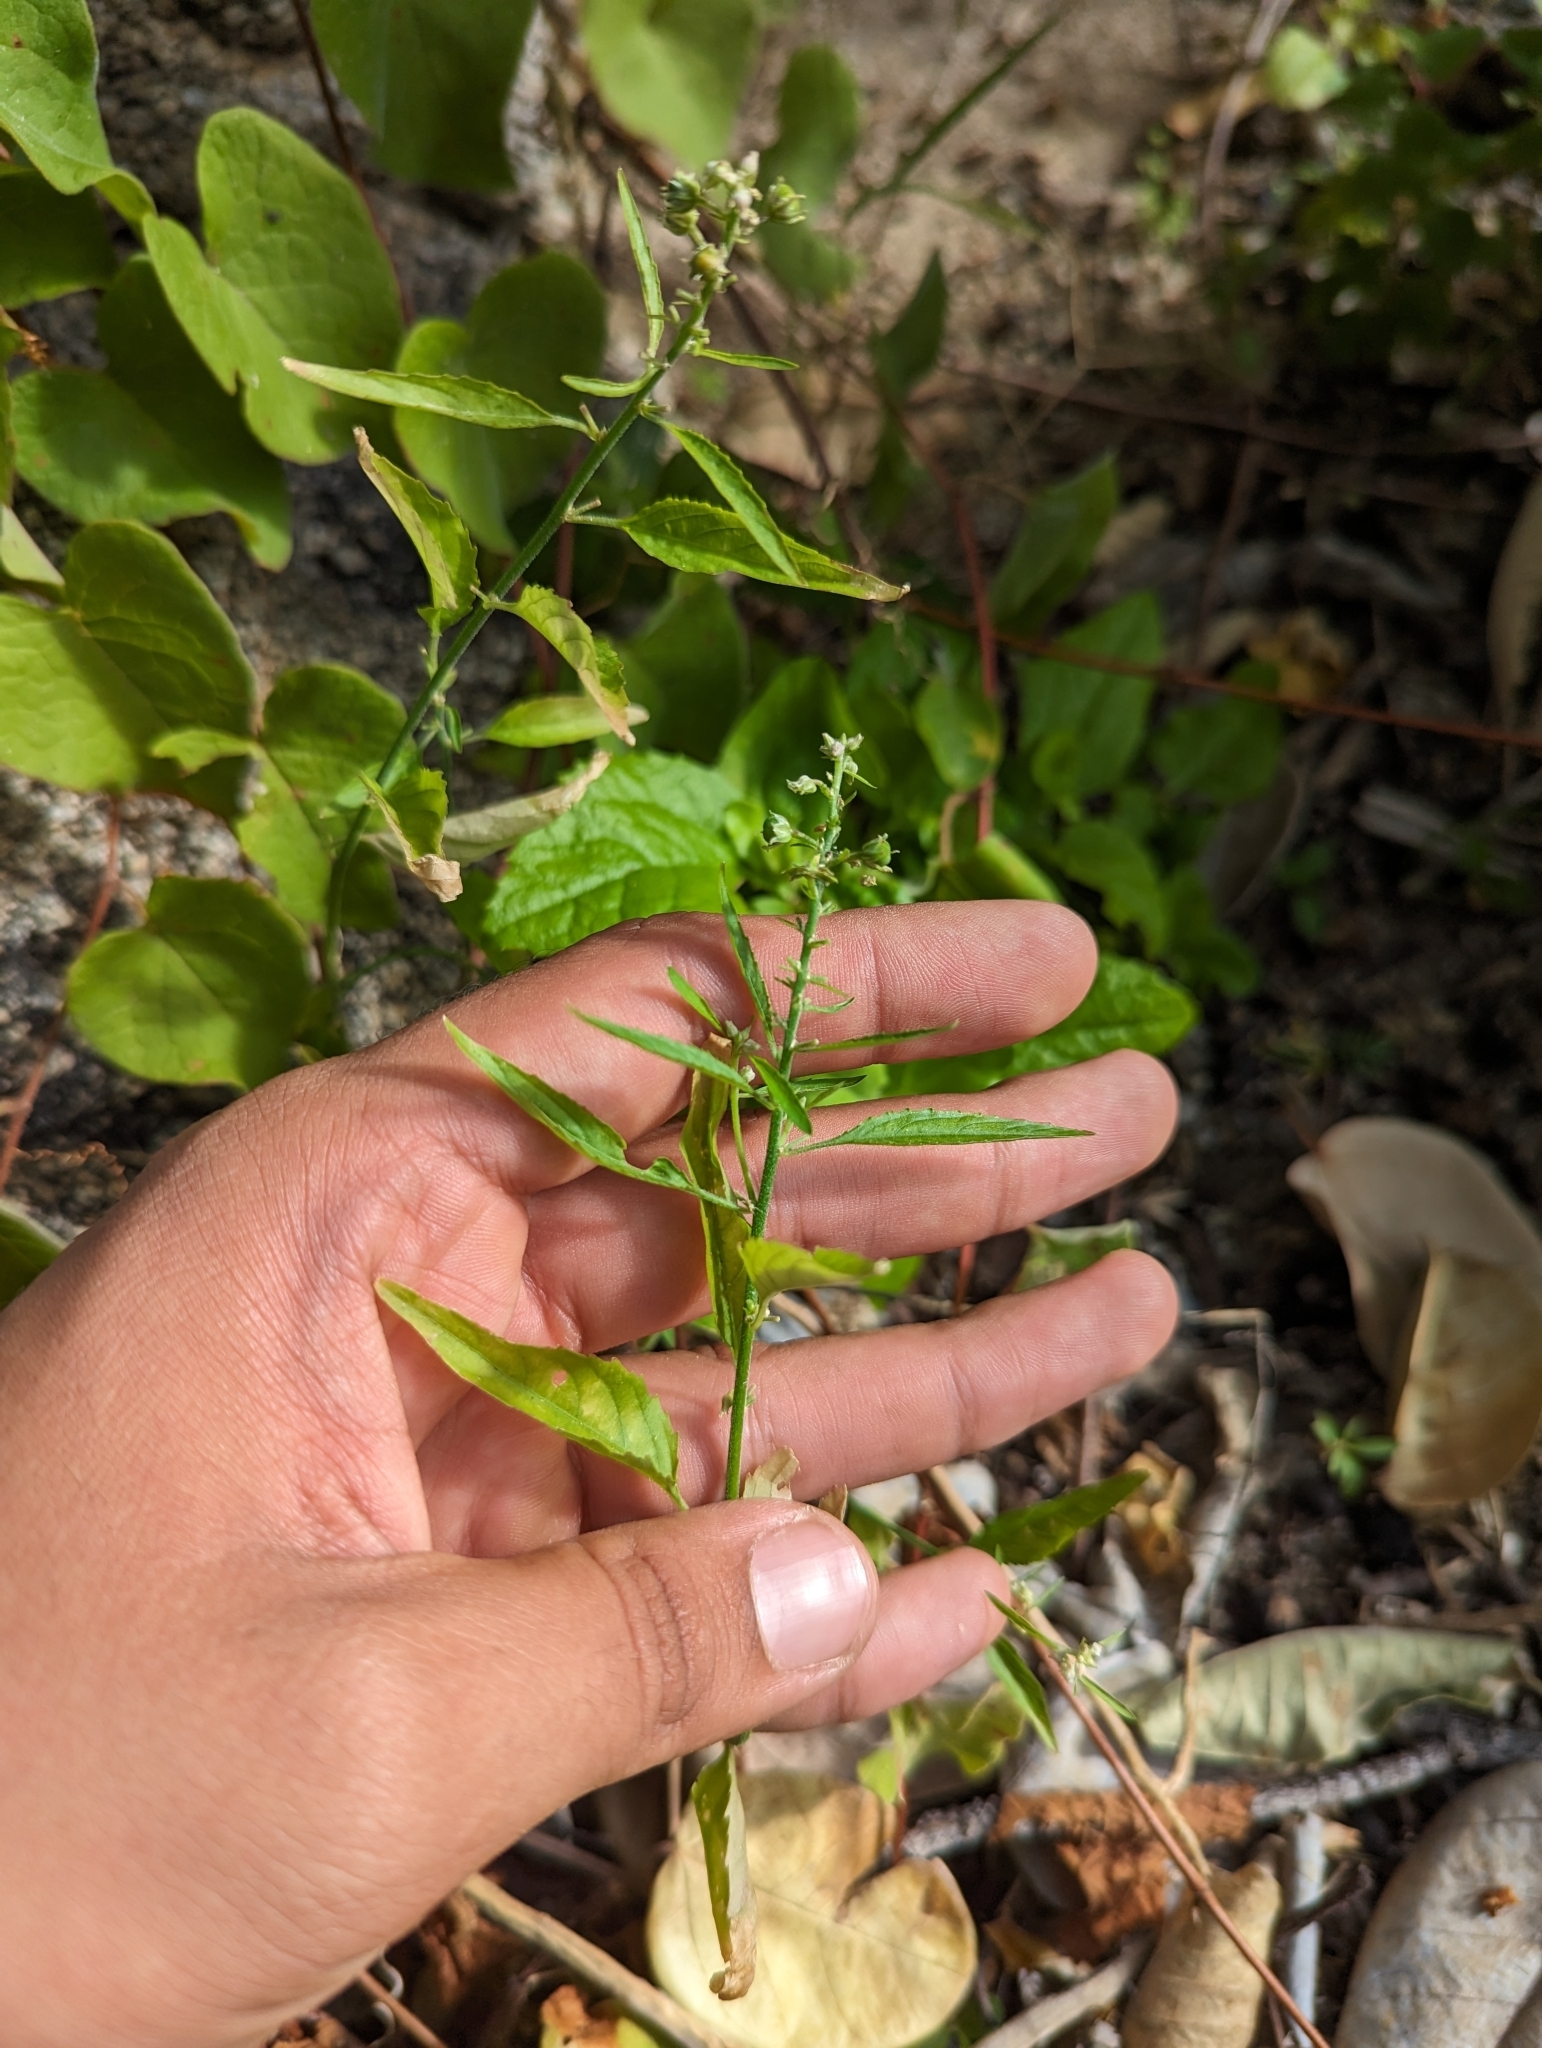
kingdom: Plantae
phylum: Tracheophyta
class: Magnoliopsida
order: Malpighiales
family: Violaceae
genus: Hybanthus
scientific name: Hybanthus fruticulosus
